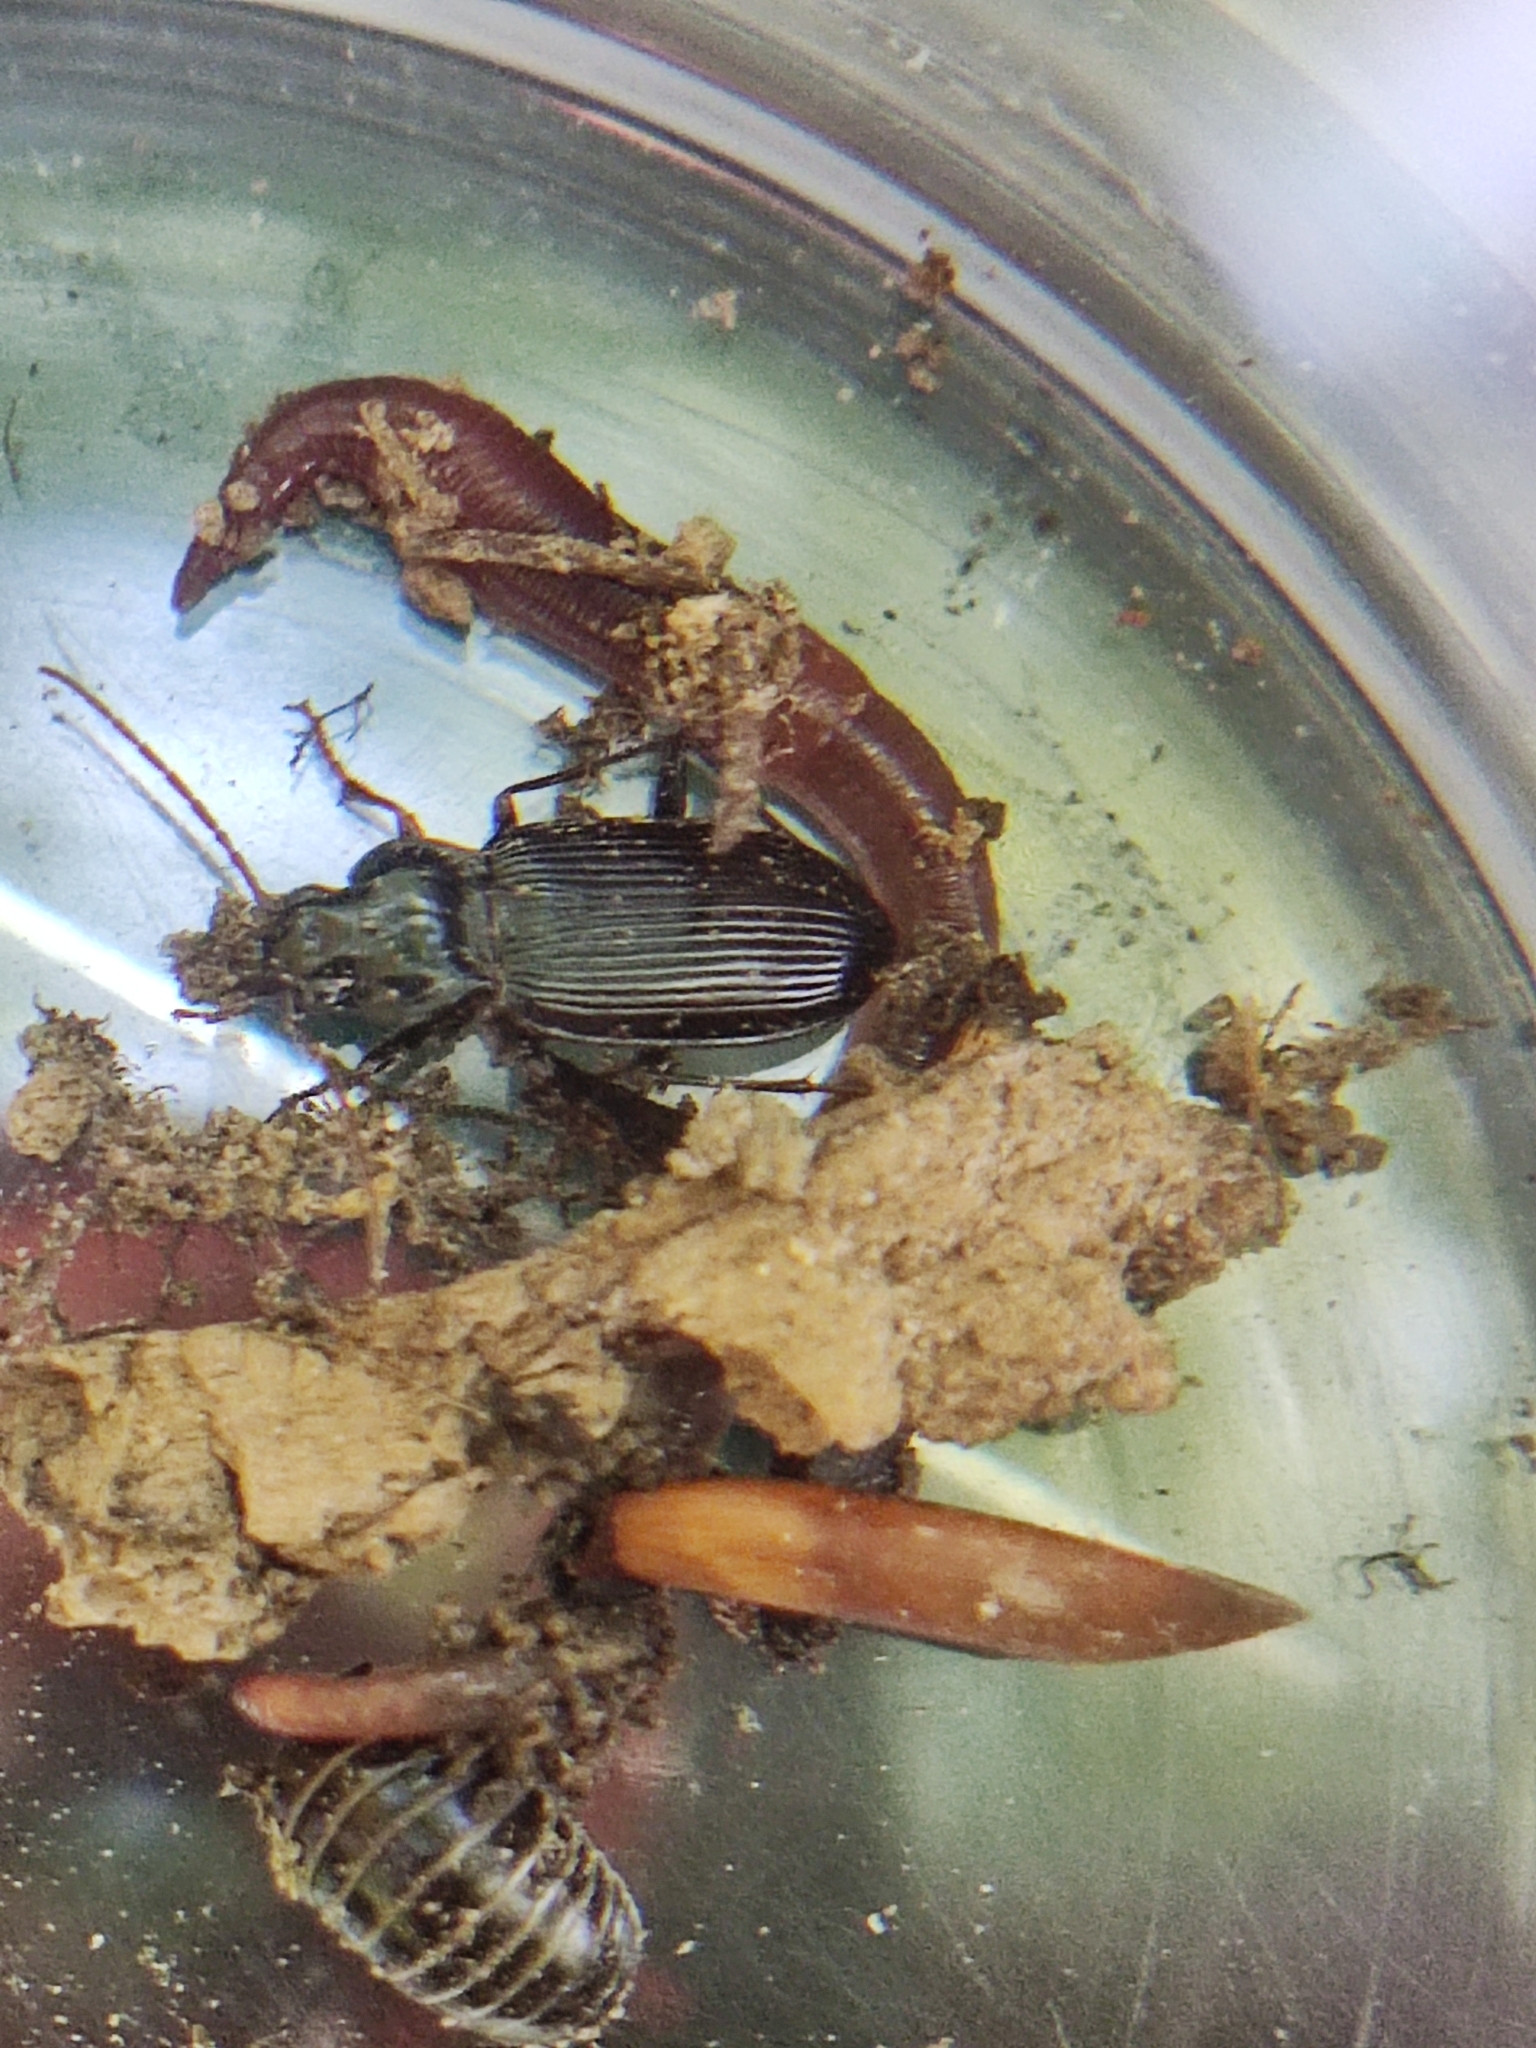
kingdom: Animalia
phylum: Arthropoda
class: Insecta
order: Coleoptera
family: Carabidae
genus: Nebria
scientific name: Nebria brevicollis
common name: Short-necked gazelle beetle
